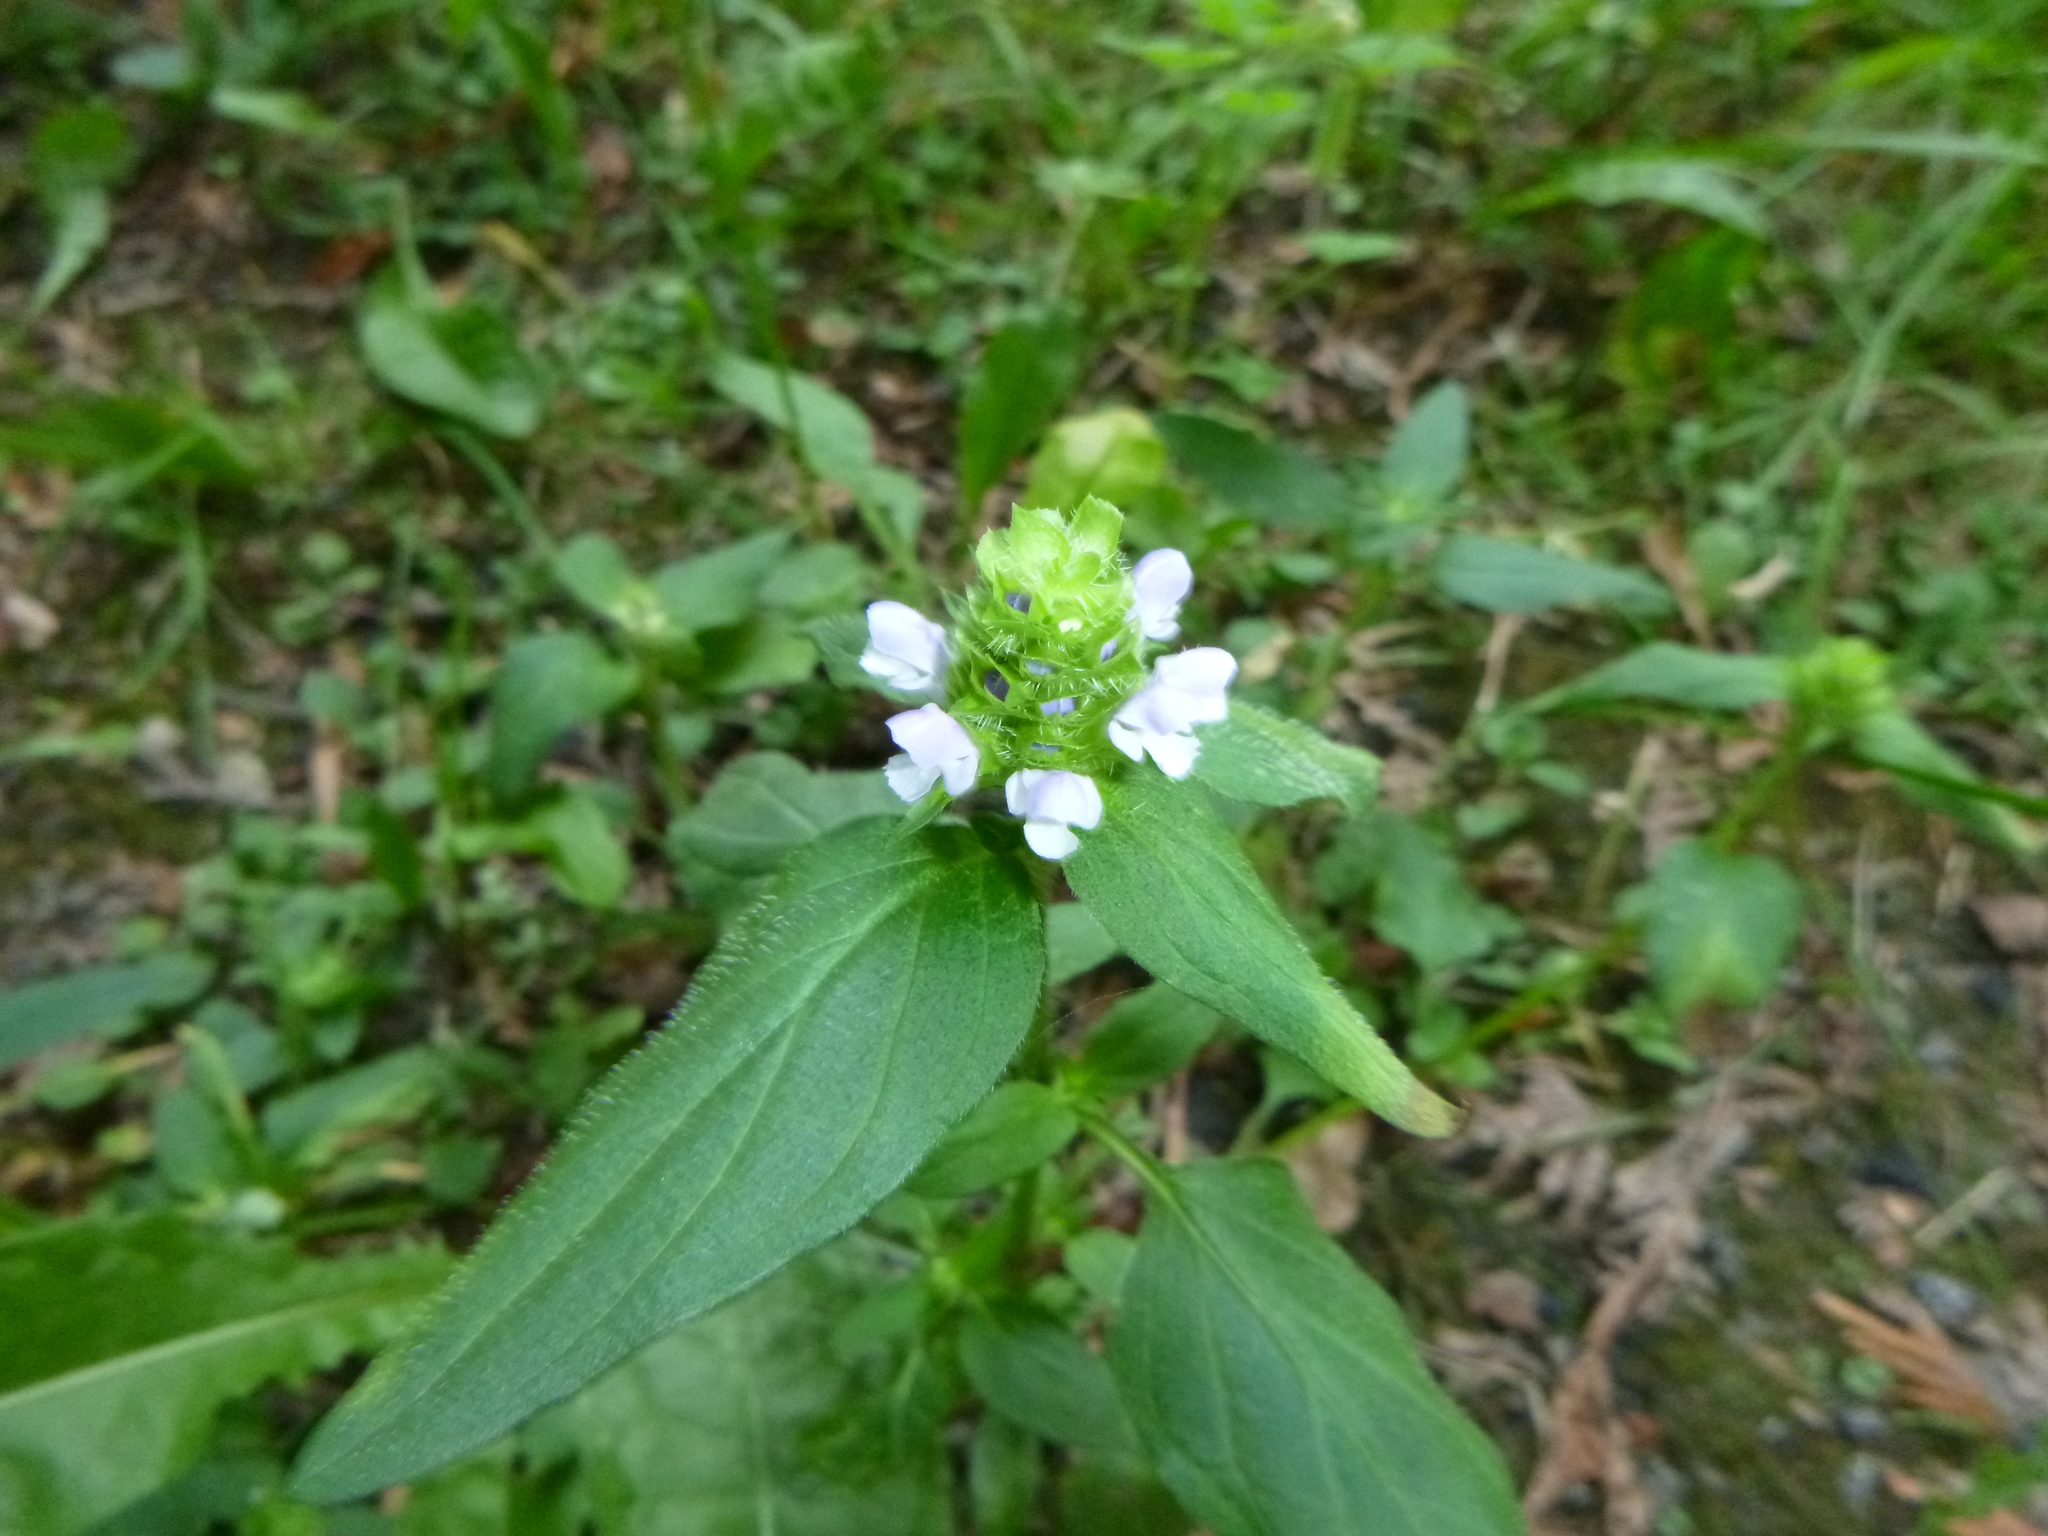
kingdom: Plantae
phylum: Tracheophyta
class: Magnoliopsida
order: Lamiales
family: Lamiaceae
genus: Prunella
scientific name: Prunella vulgaris
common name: Heal-all
